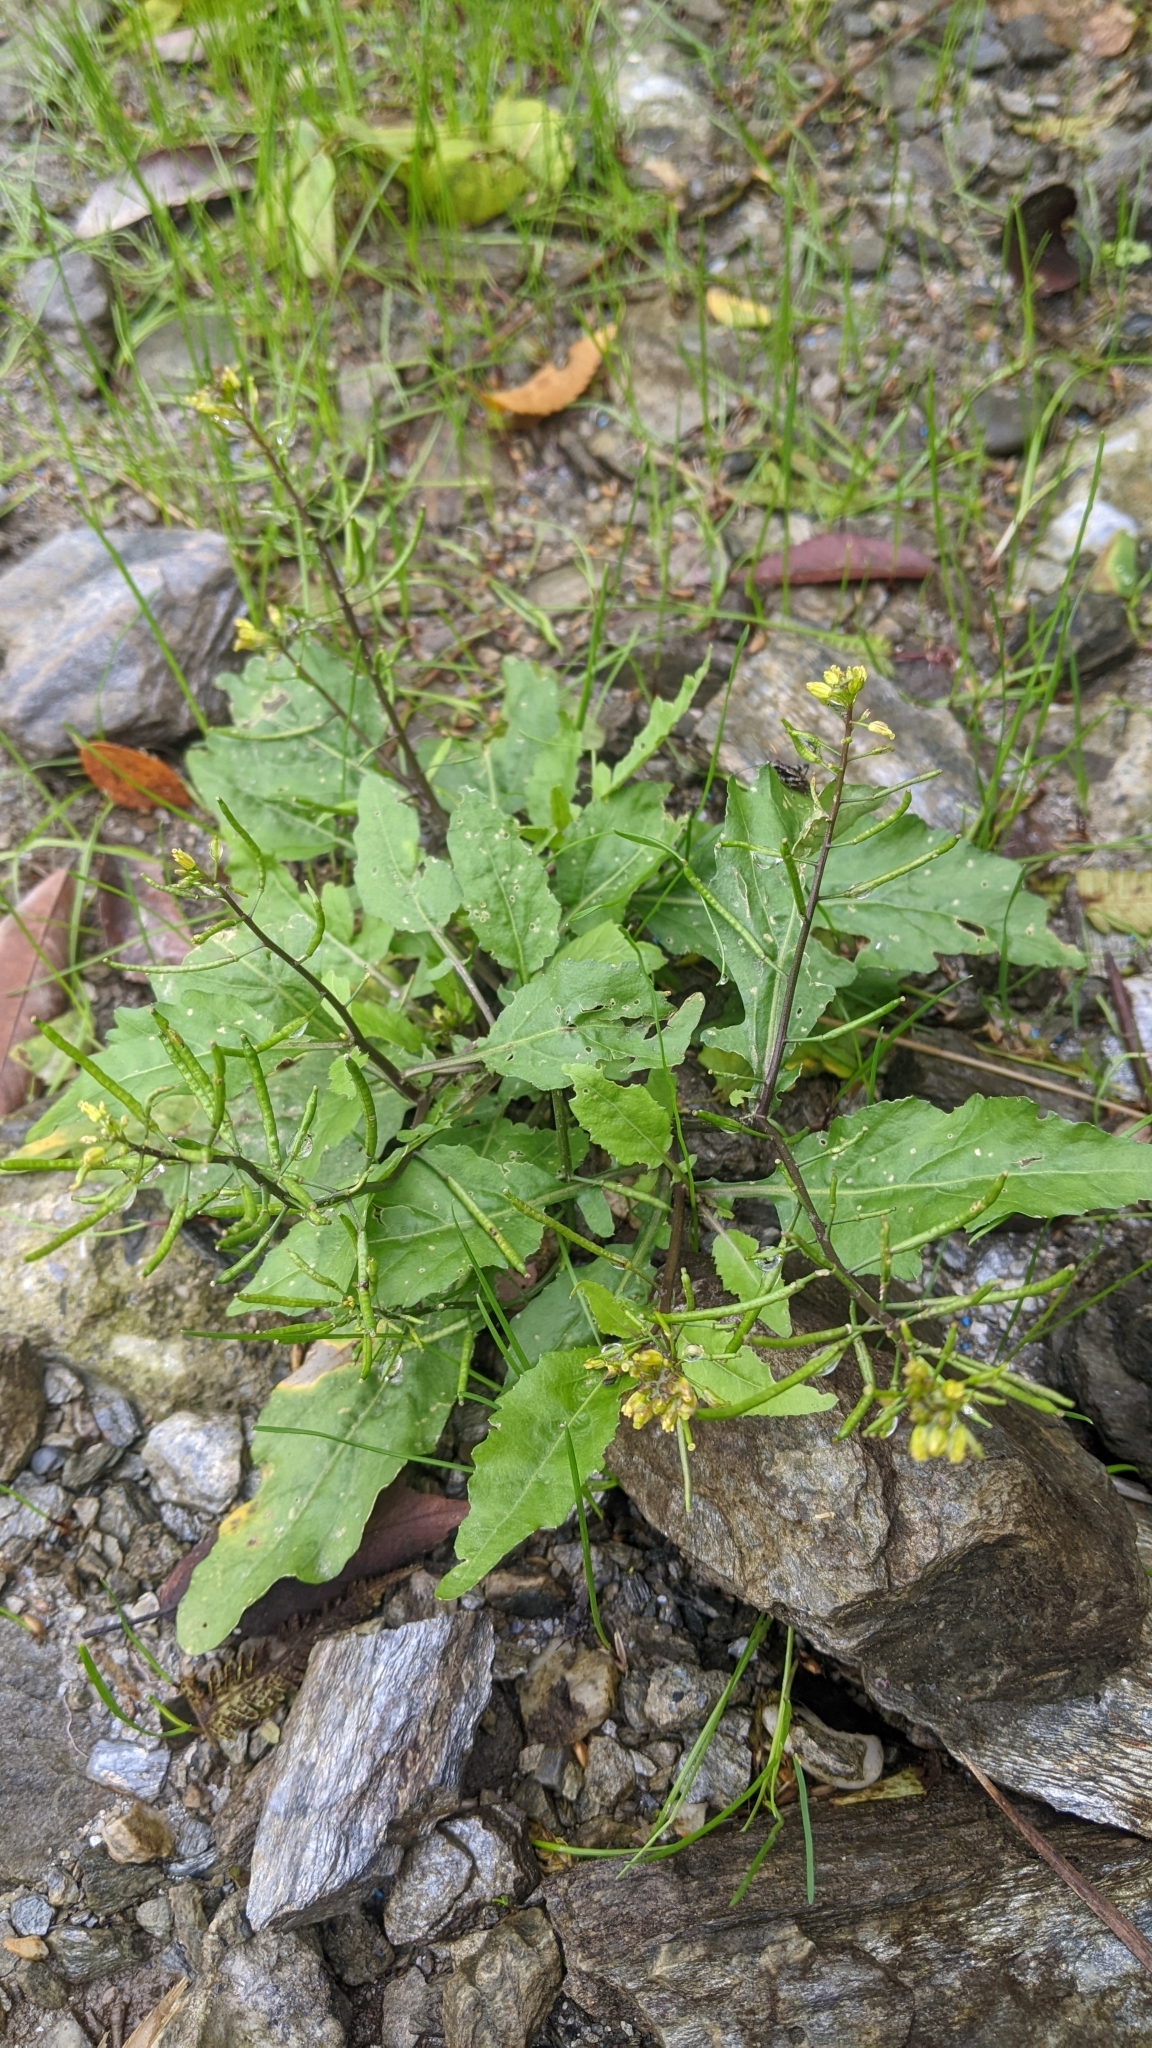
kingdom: Plantae
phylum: Tracheophyta
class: Magnoliopsida
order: Brassicales
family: Brassicaceae
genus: Rorippa
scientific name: Rorippa indica
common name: Variableleaf yellowcress
